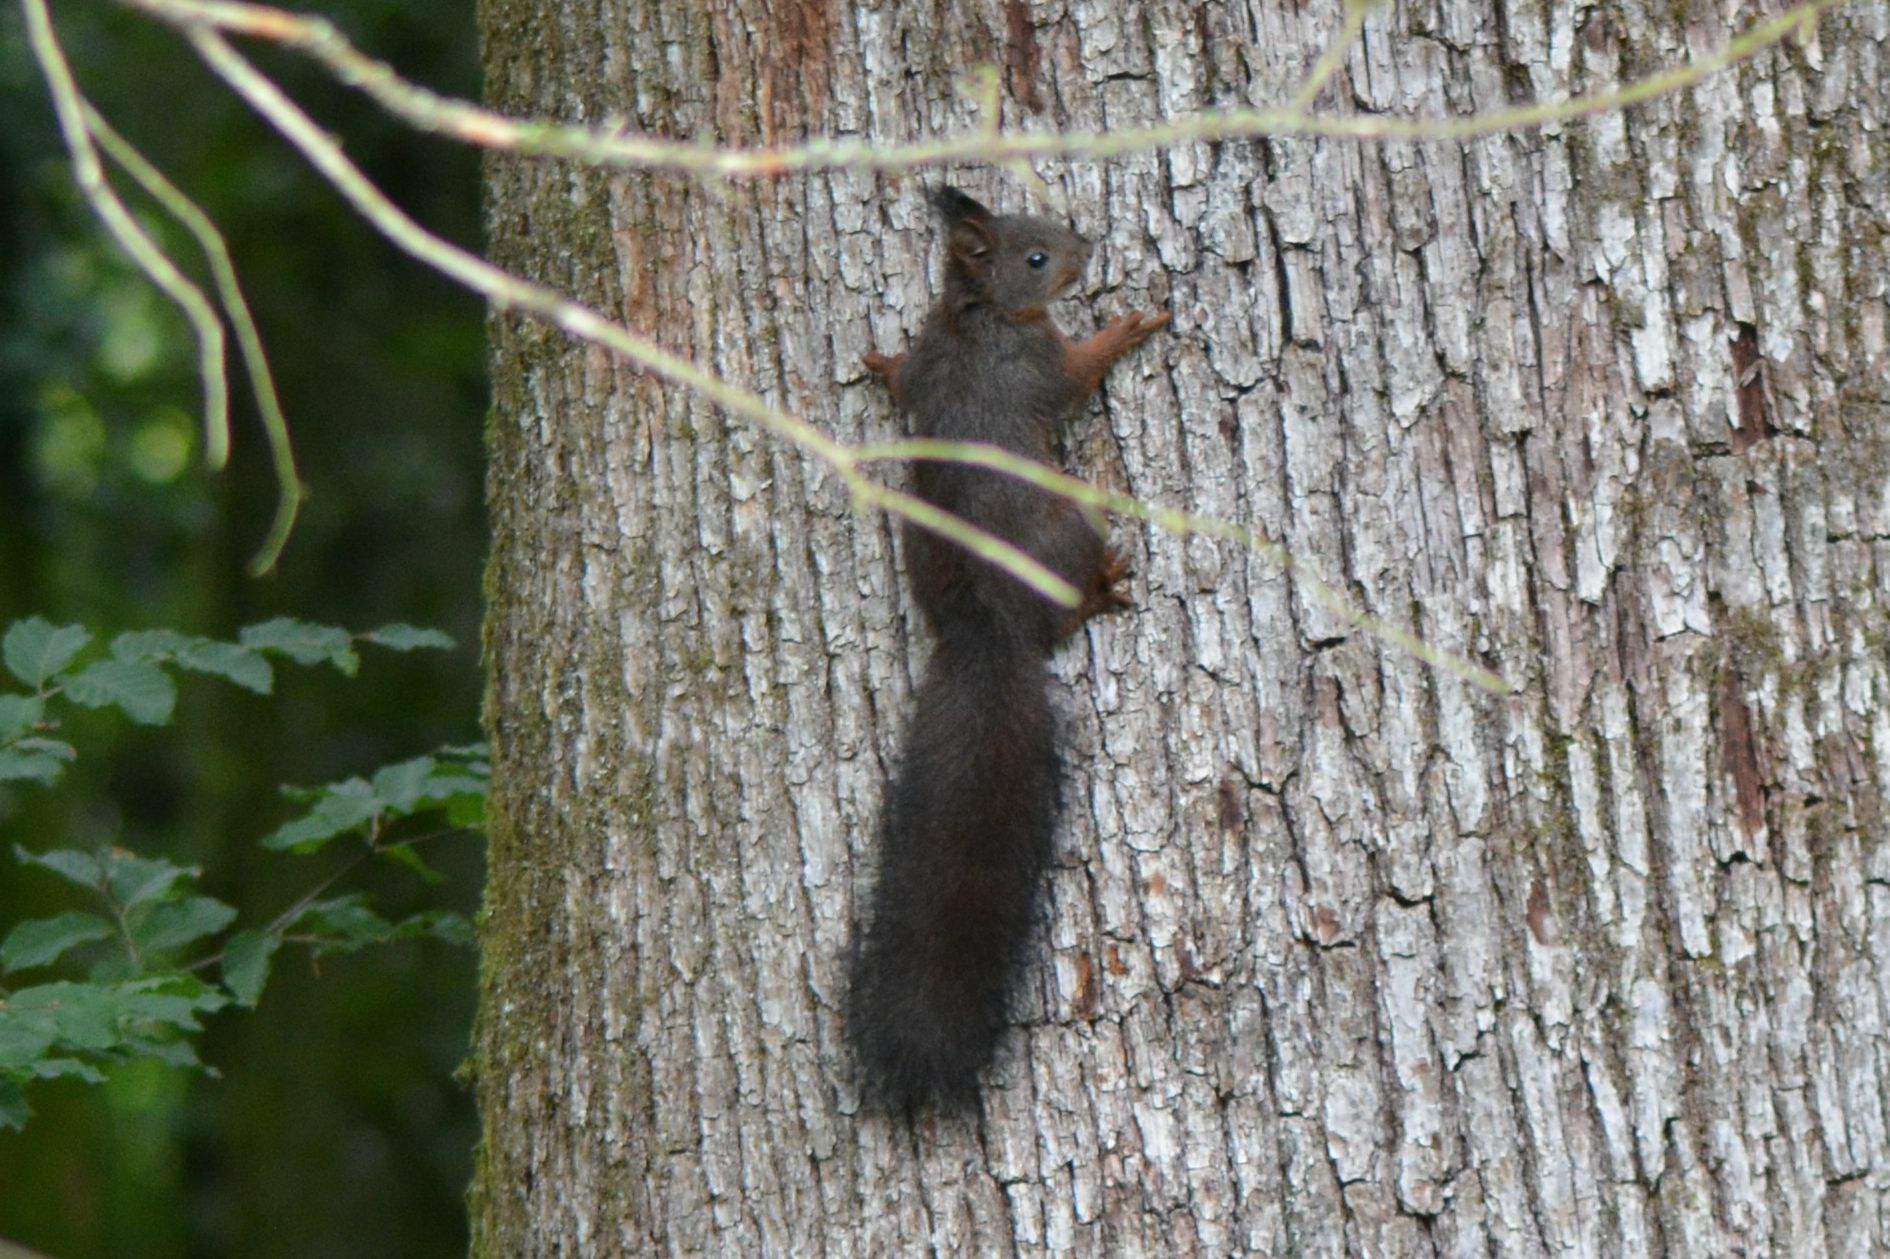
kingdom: Animalia
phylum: Chordata
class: Mammalia
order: Rodentia
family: Sciuridae
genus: Sciurus
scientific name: Sciurus vulgaris
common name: Eurasian red squirrel
